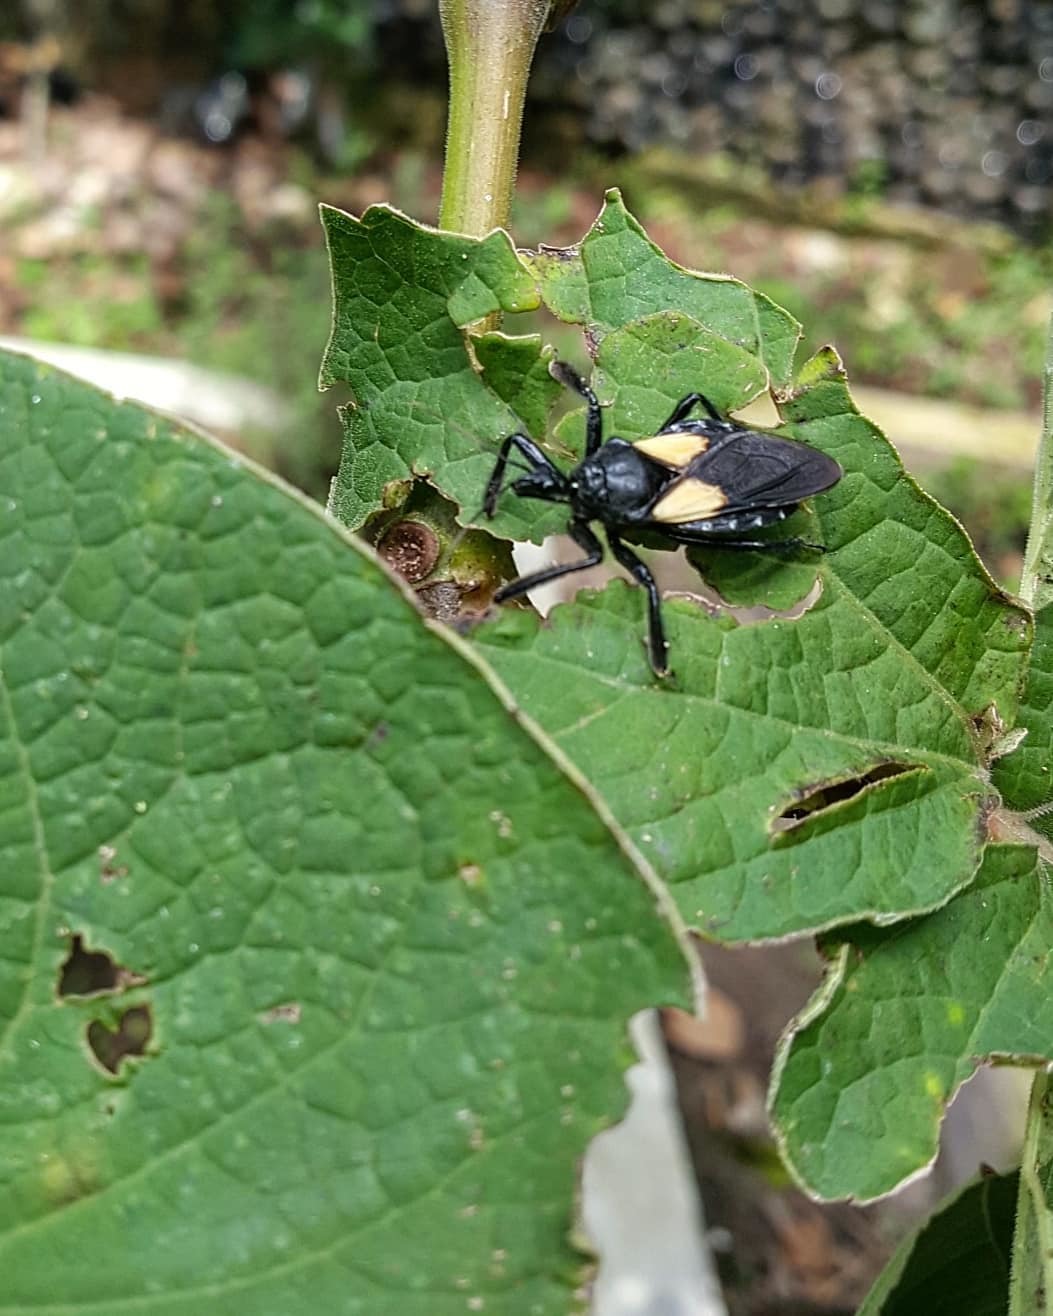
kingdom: Animalia
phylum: Arthropoda
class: Insecta
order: Hemiptera
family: Reduviidae
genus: Apiomerus
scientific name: Apiomerus elatus
